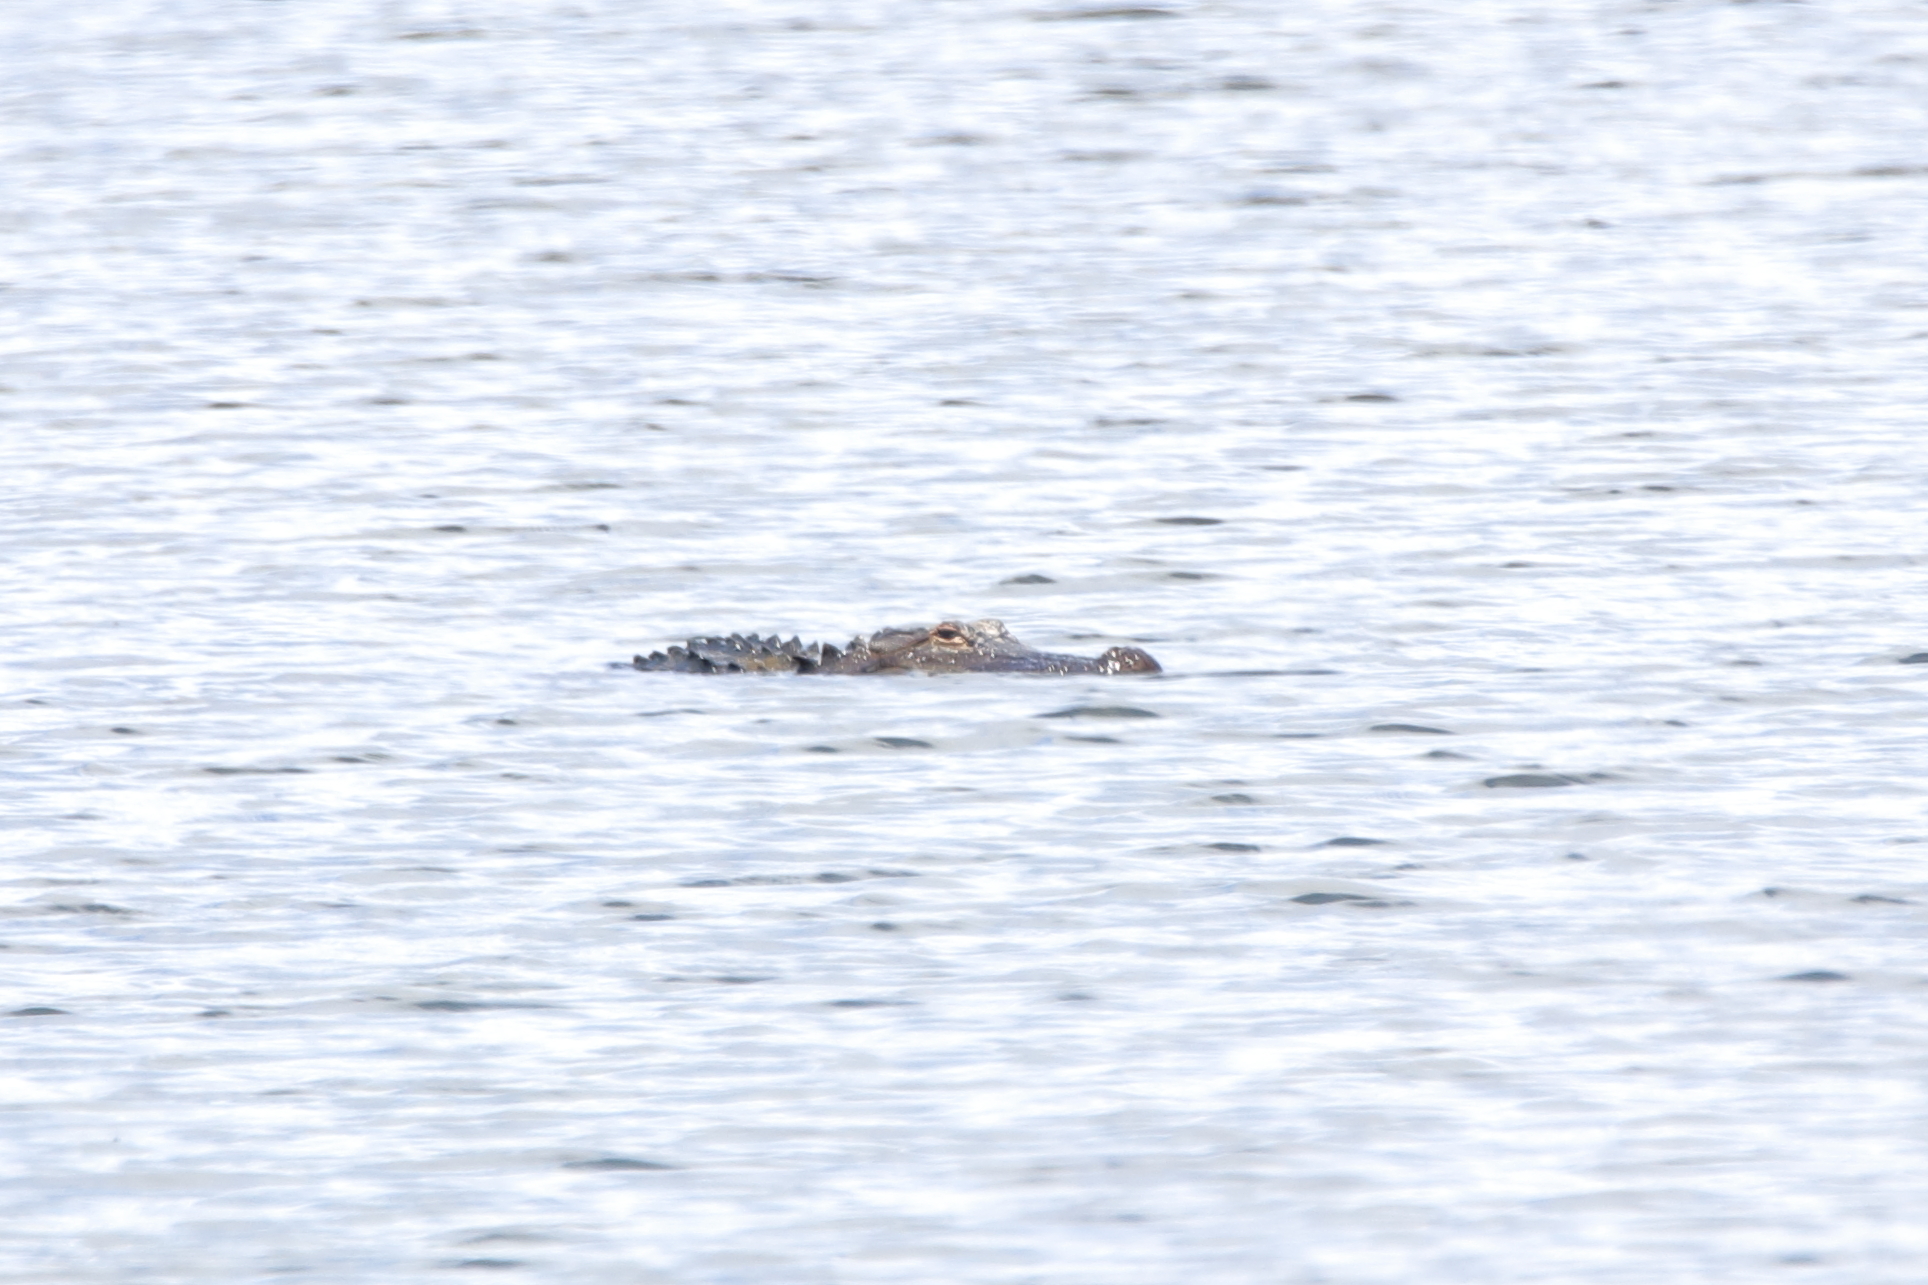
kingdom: Animalia
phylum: Chordata
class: Crocodylia
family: Alligatoridae
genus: Alligator
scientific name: Alligator mississippiensis
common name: American alligator
